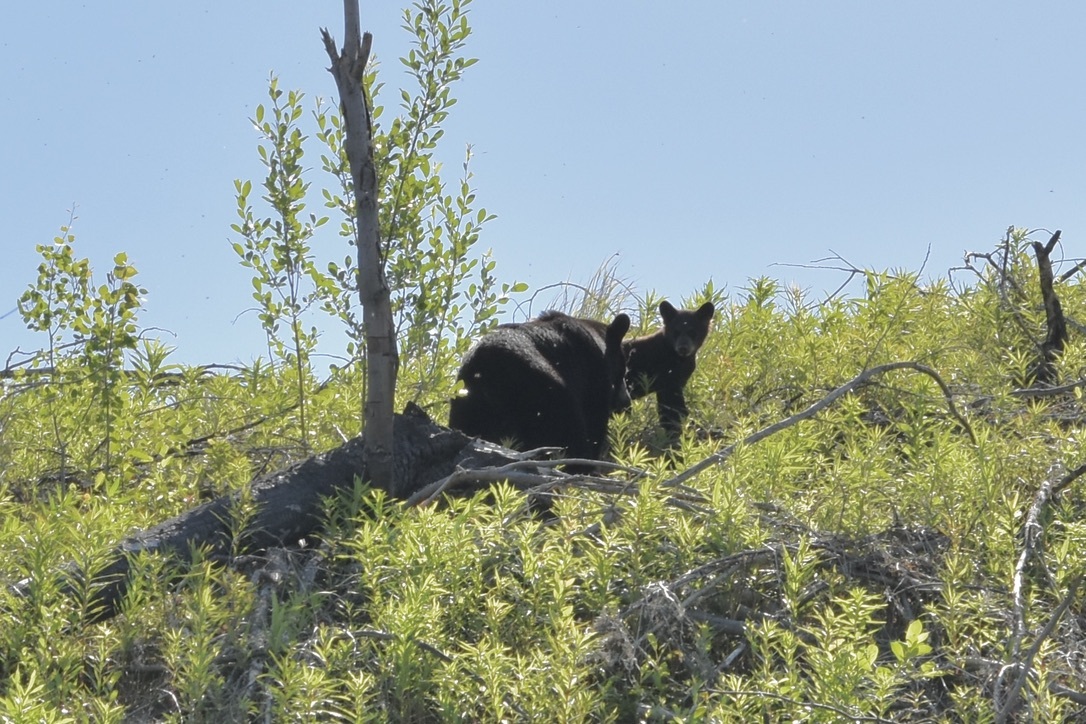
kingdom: Animalia
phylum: Chordata
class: Mammalia
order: Carnivora
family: Ursidae
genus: Ursus
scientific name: Ursus americanus
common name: American black bear
